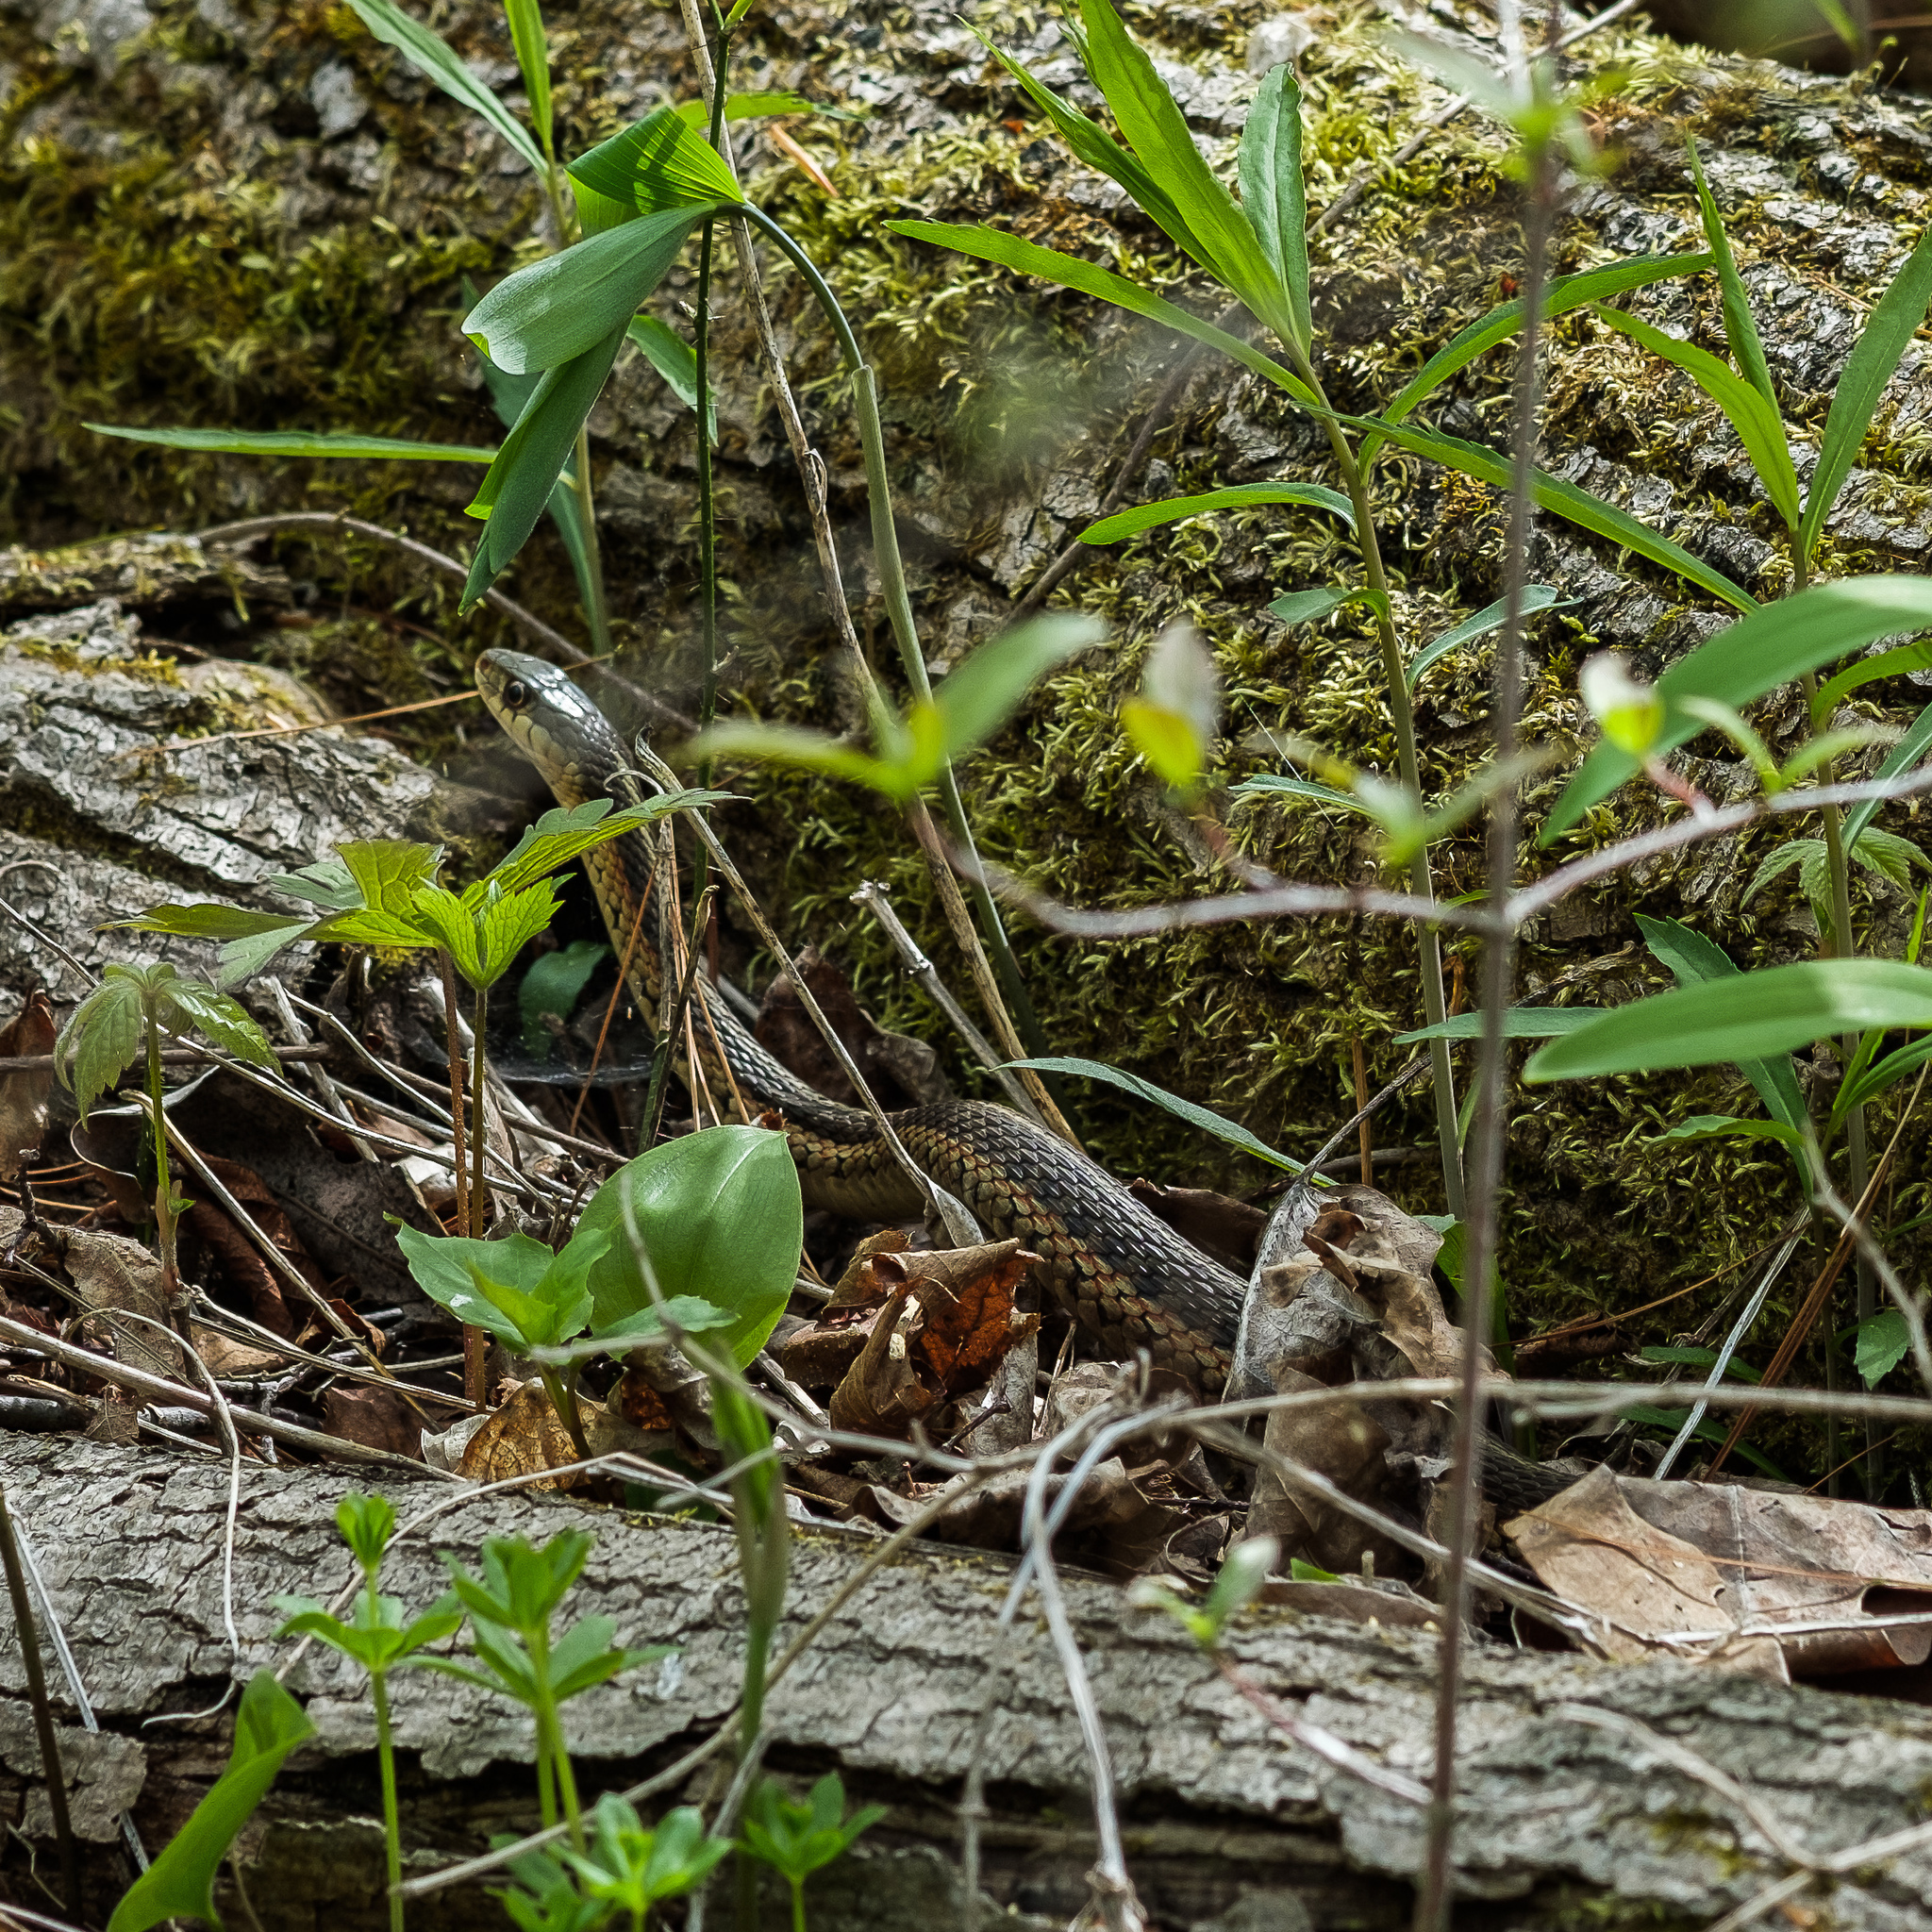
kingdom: Animalia
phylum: Chordata
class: Squamata
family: Colubridae
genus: Thamnophis
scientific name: Thamnophis sirtalis
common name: Common garter snake
